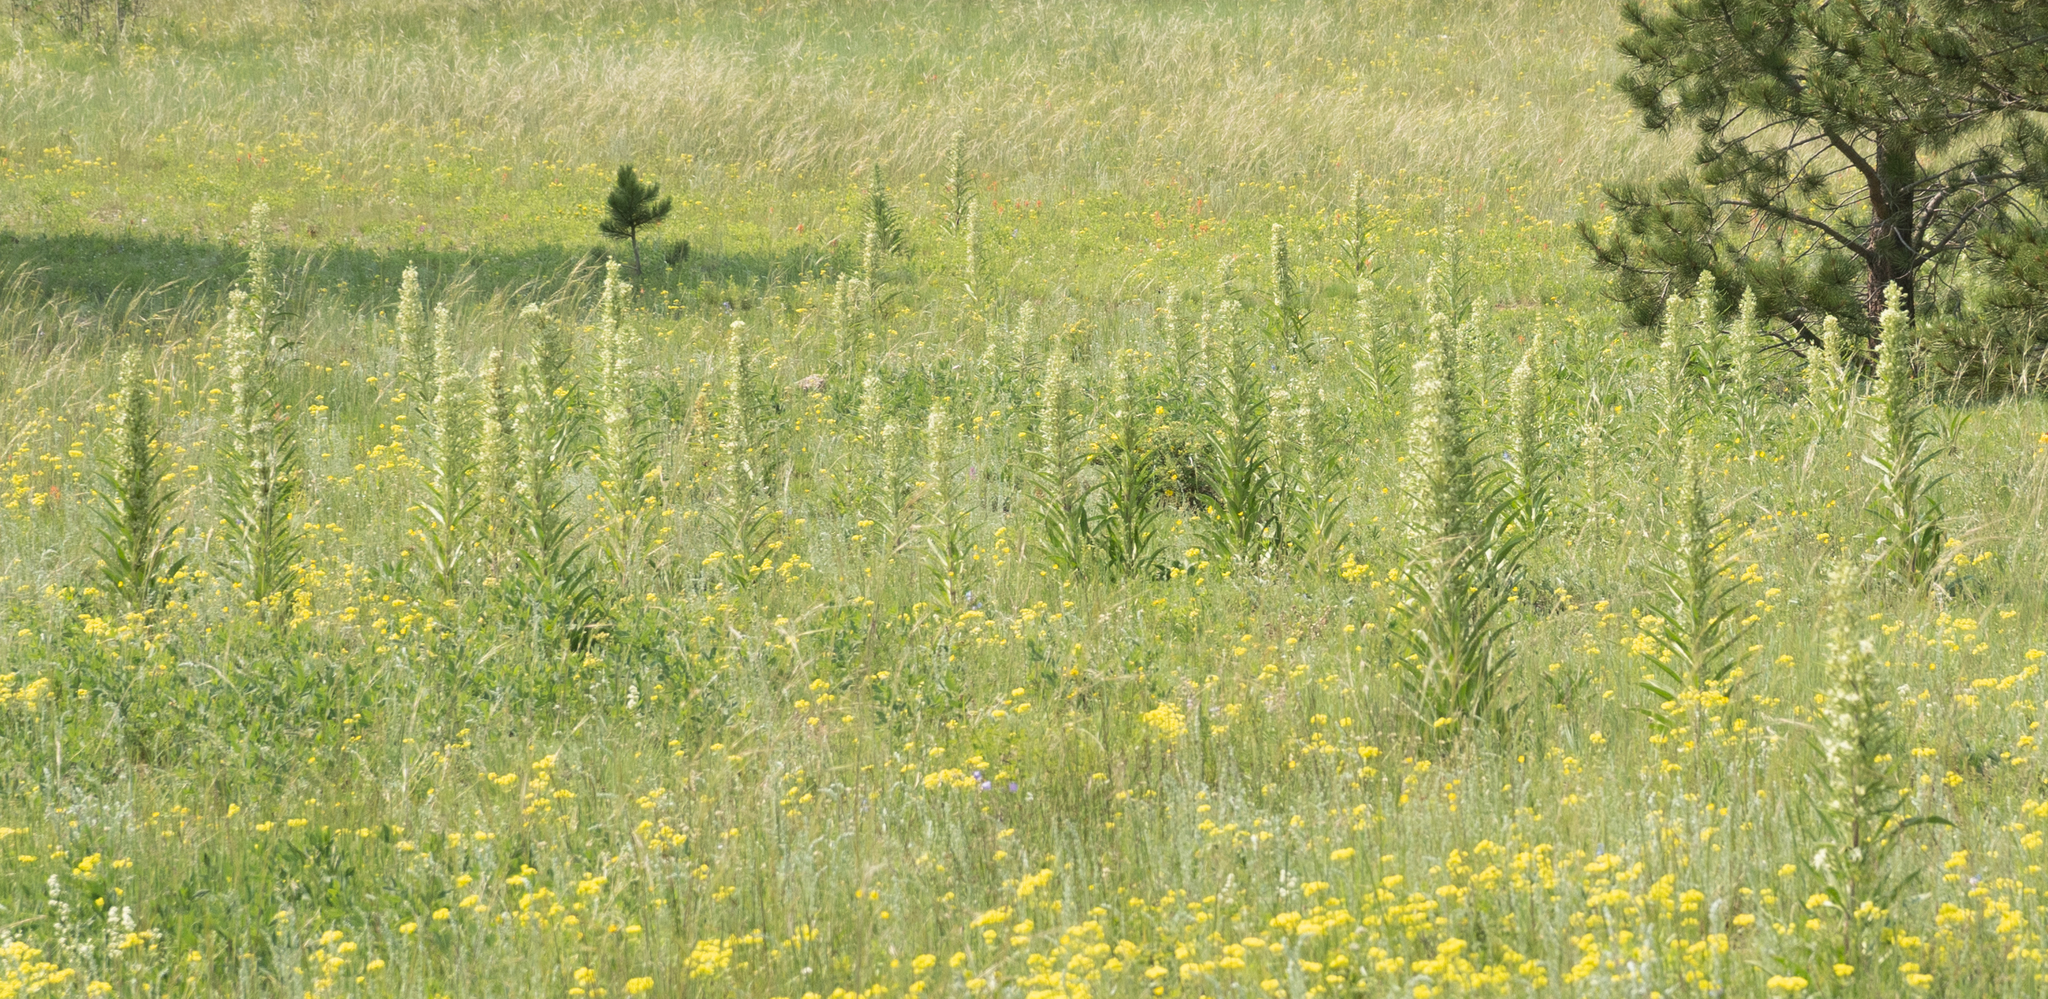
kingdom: Plantae
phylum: Tracheophyta
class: Magnoliopsida
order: Gentianales
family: Gentianaceae
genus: Frasera
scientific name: Frasera speciosa
